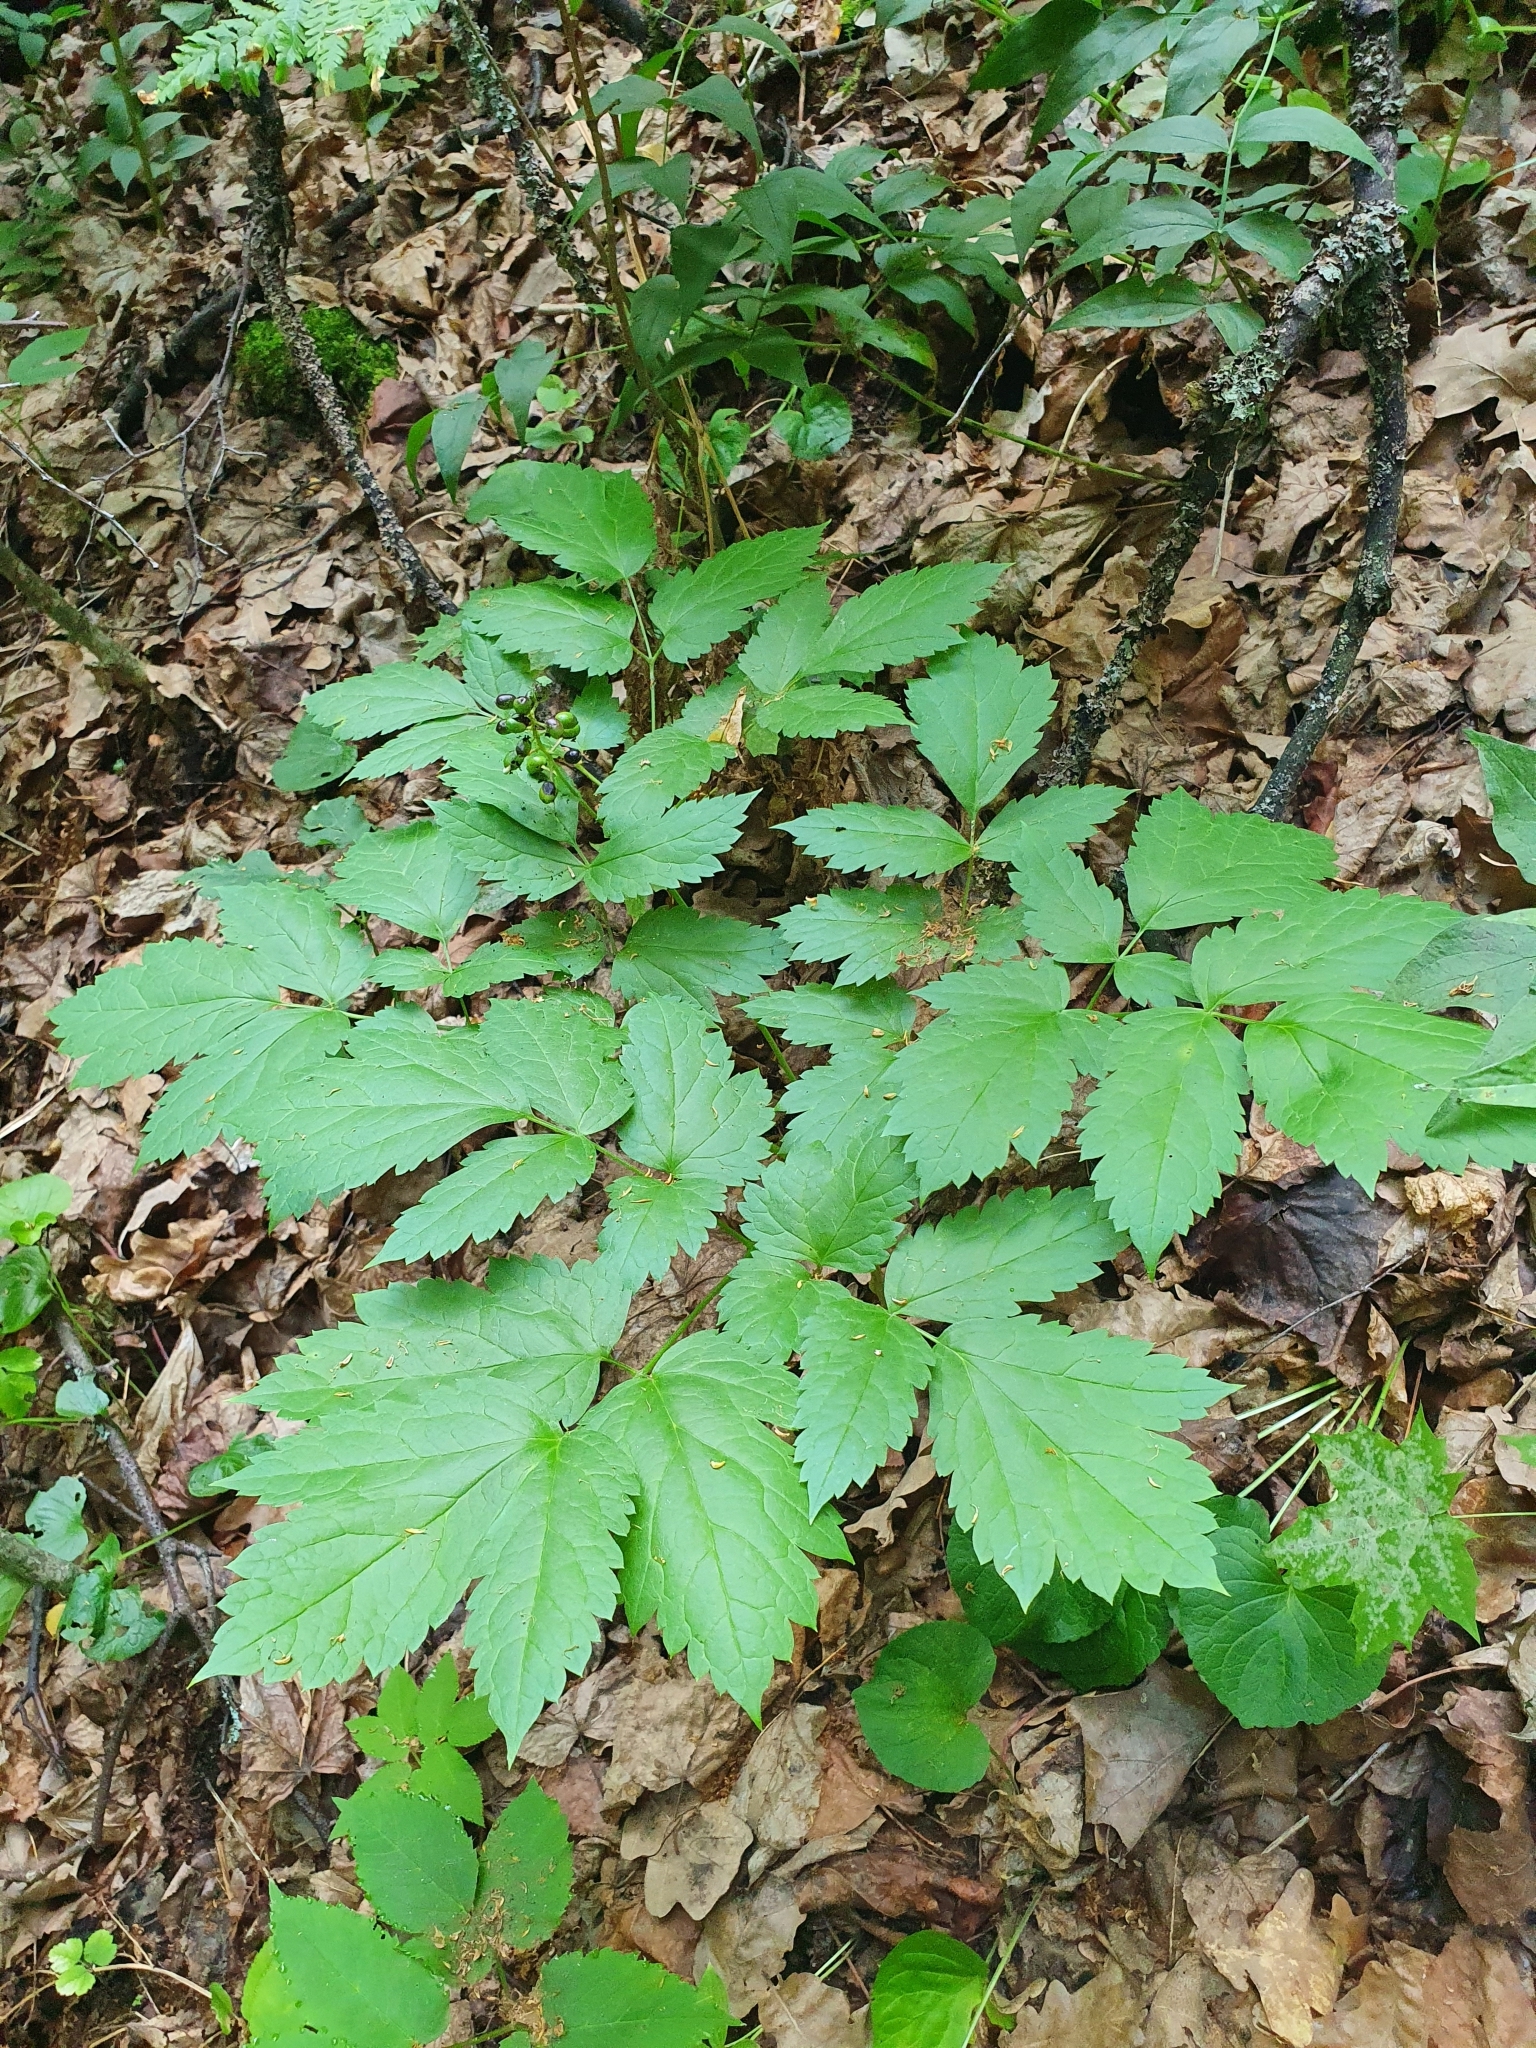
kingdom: Plantae
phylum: Tracheophyta
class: Magnoliopsida
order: Ranunculales
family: Ranunculaceae
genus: Actaea
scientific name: Actaea spicata
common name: Baneberry
